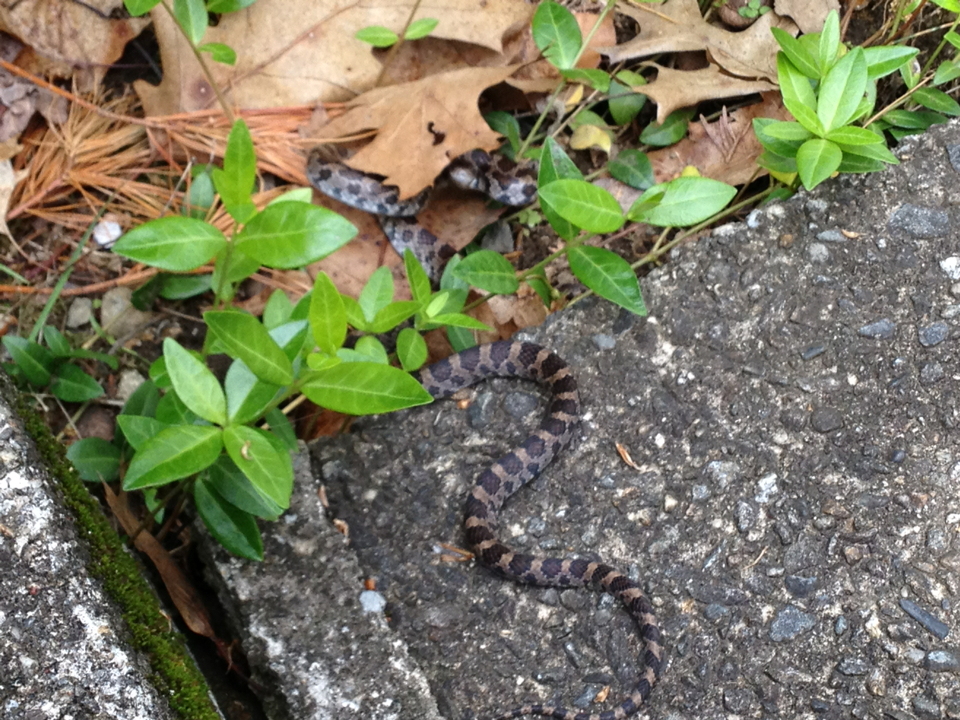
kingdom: Animalia
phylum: Chordata
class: Squamata
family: Colubridae
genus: Lampropeltis
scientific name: Lampropeltis triangulum
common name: Eastern milksnake
